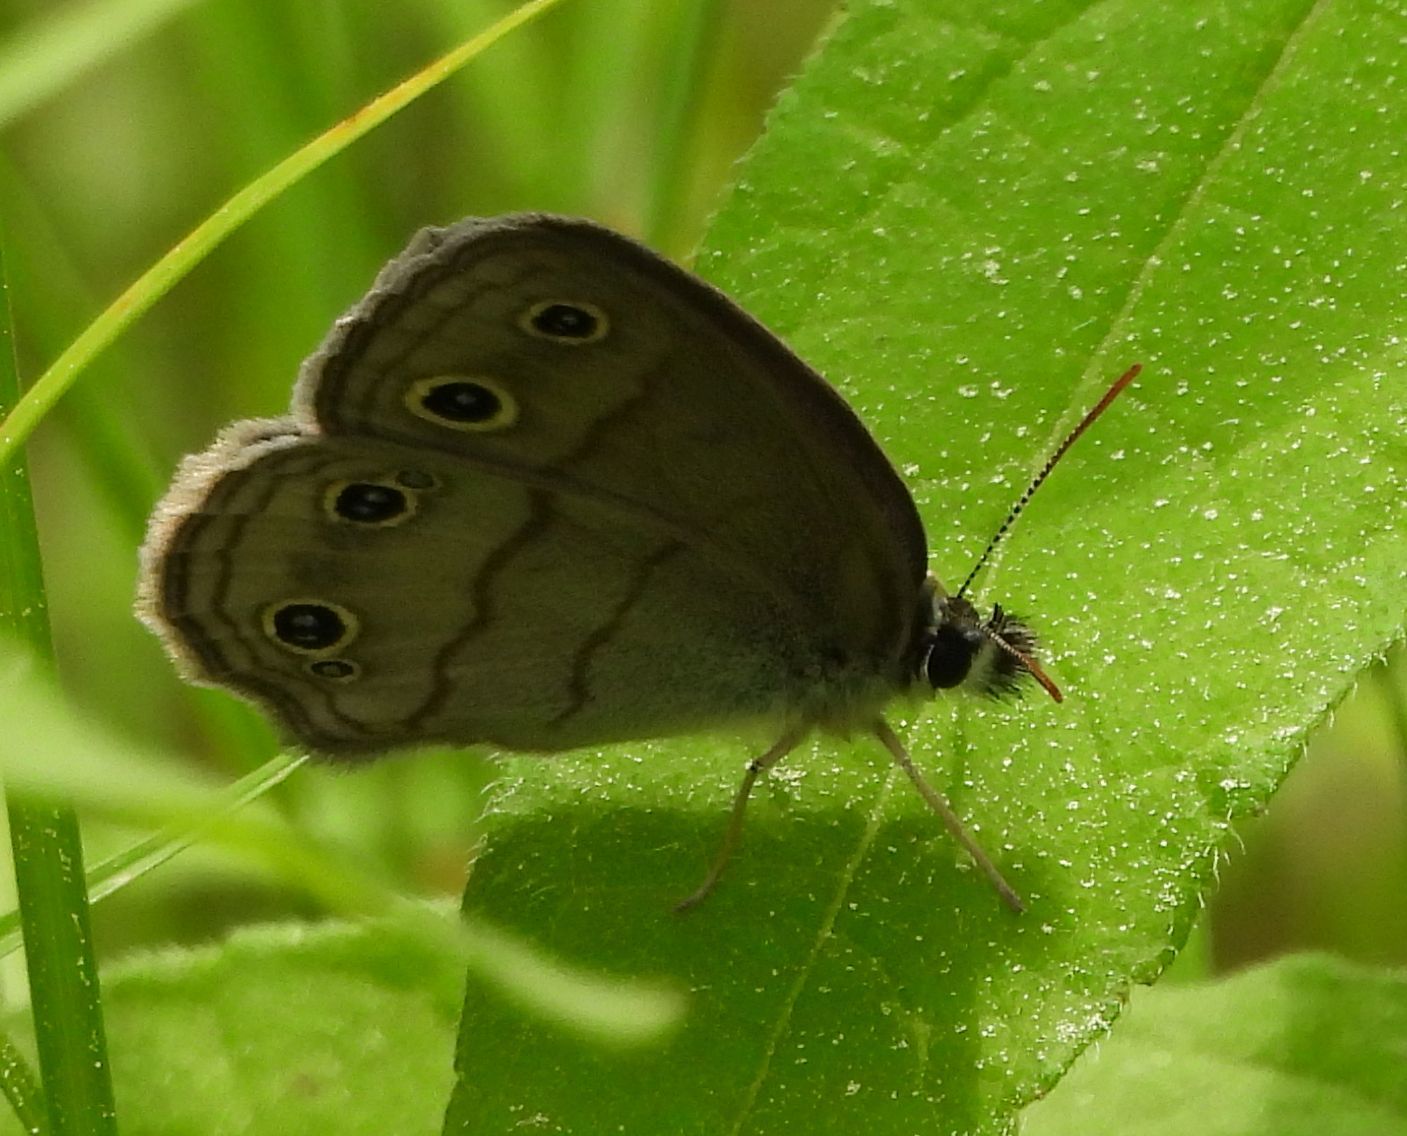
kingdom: Animalia
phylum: Arthropoda
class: Insecta
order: Lepidoptera
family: Nymphalidae
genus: Euptychia
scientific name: Euptychia cymela
